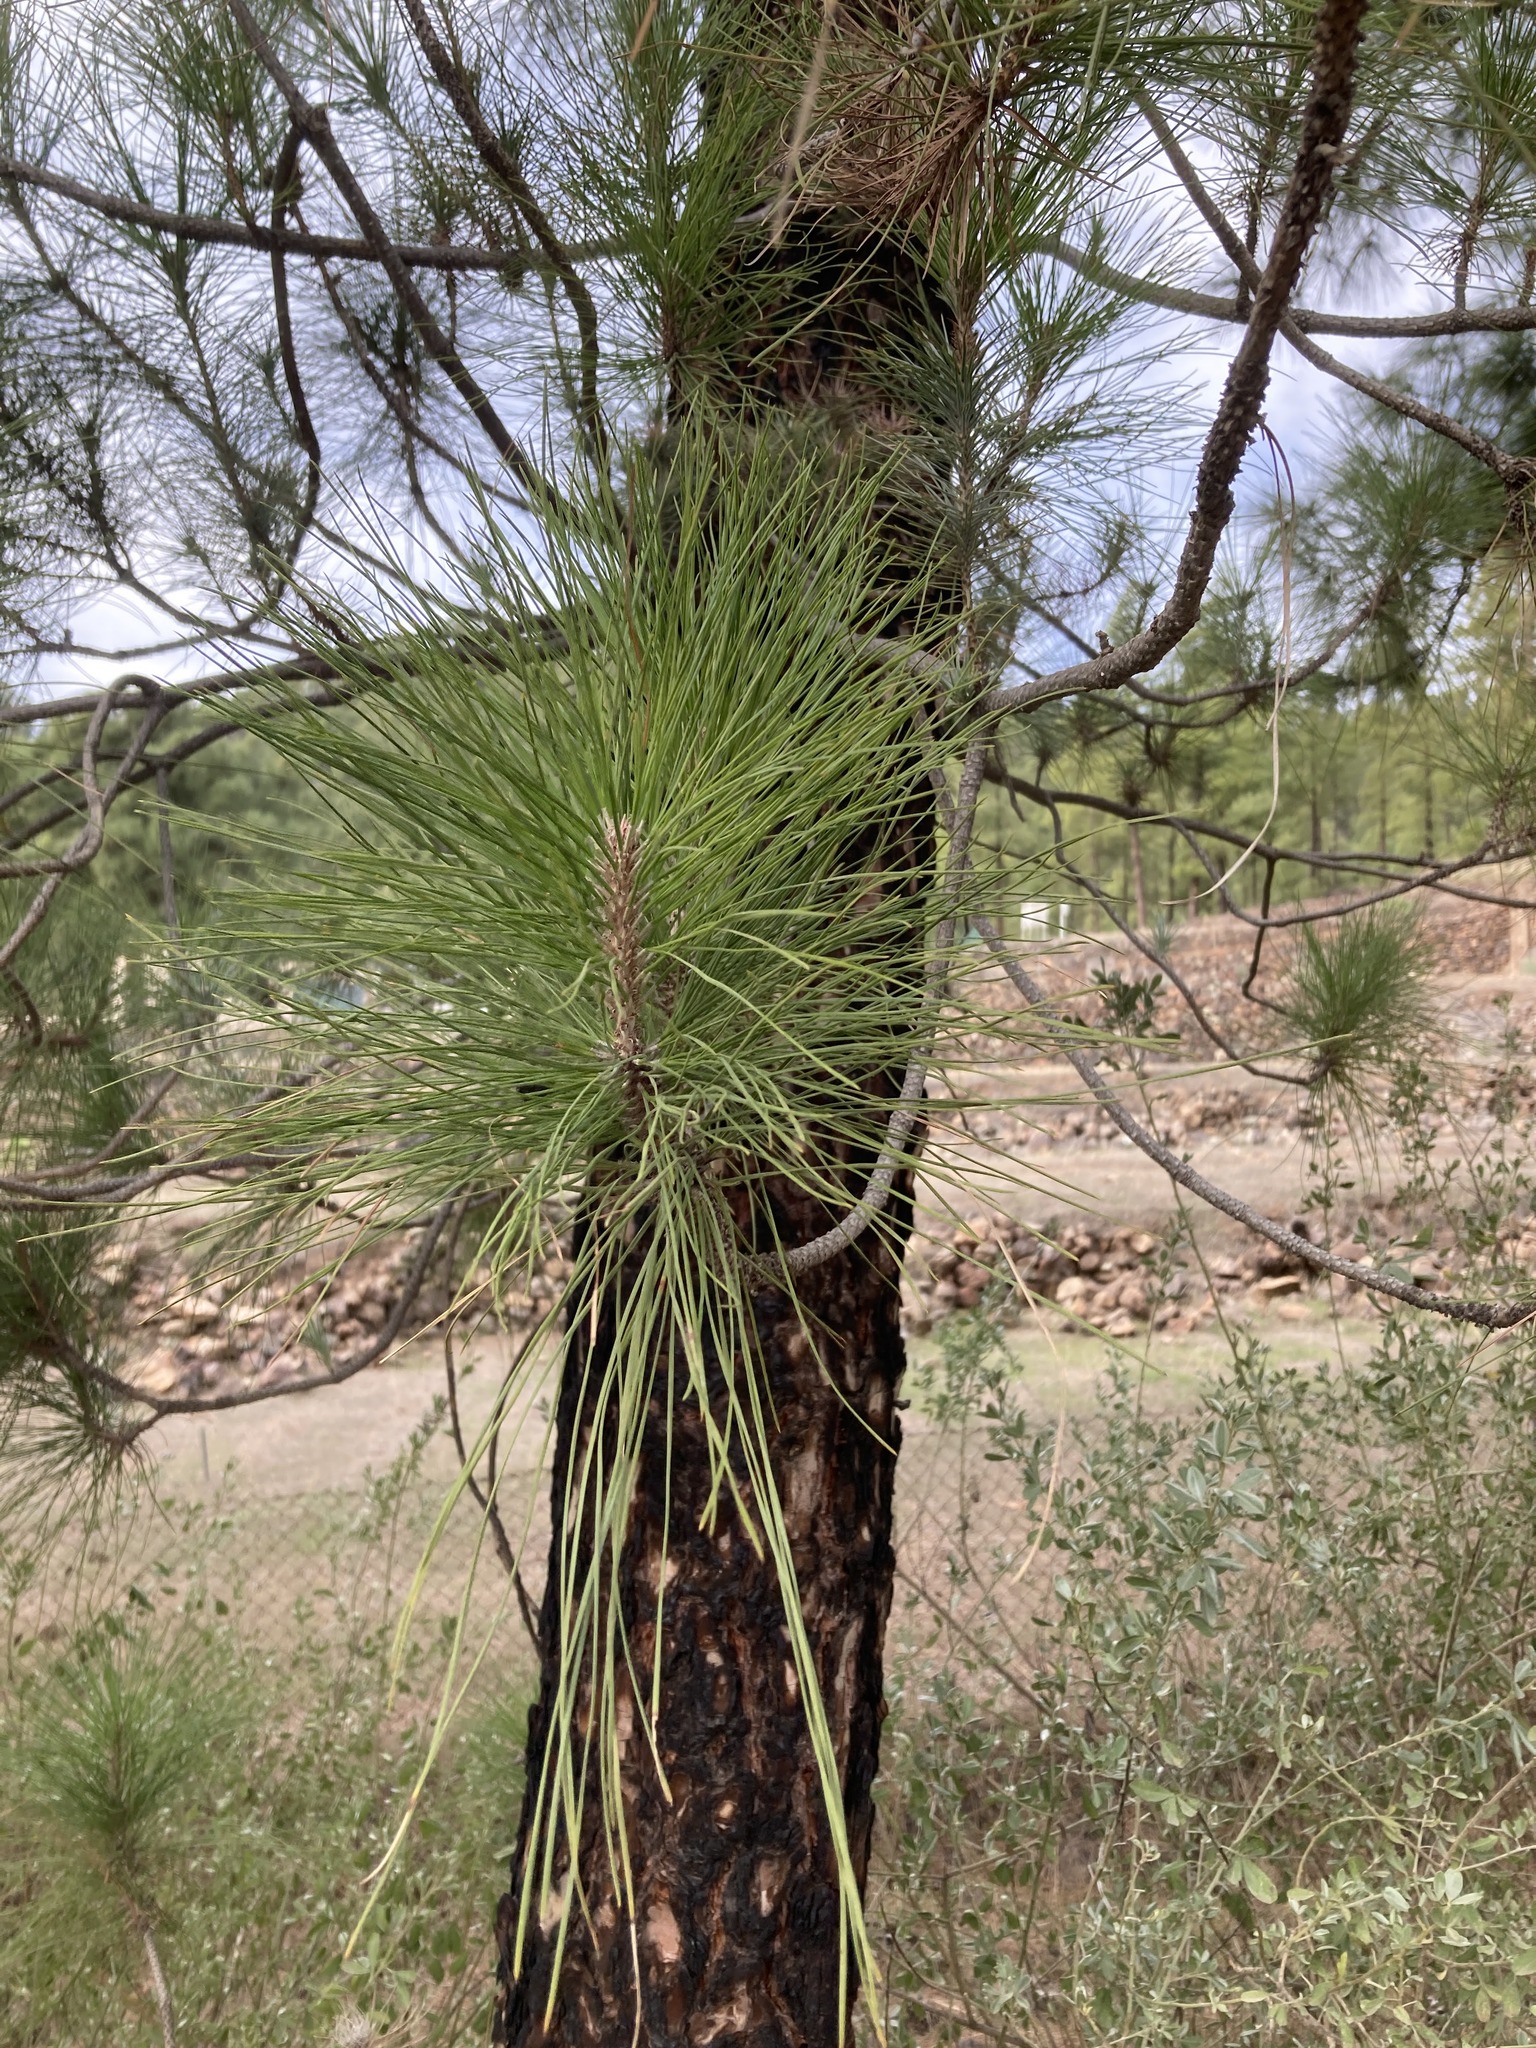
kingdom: Plantae
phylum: Tracheophyta
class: Pinopsida
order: Pinales
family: Pinaceae
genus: Pinus
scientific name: Pinus canariensis
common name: Canary islands pine
